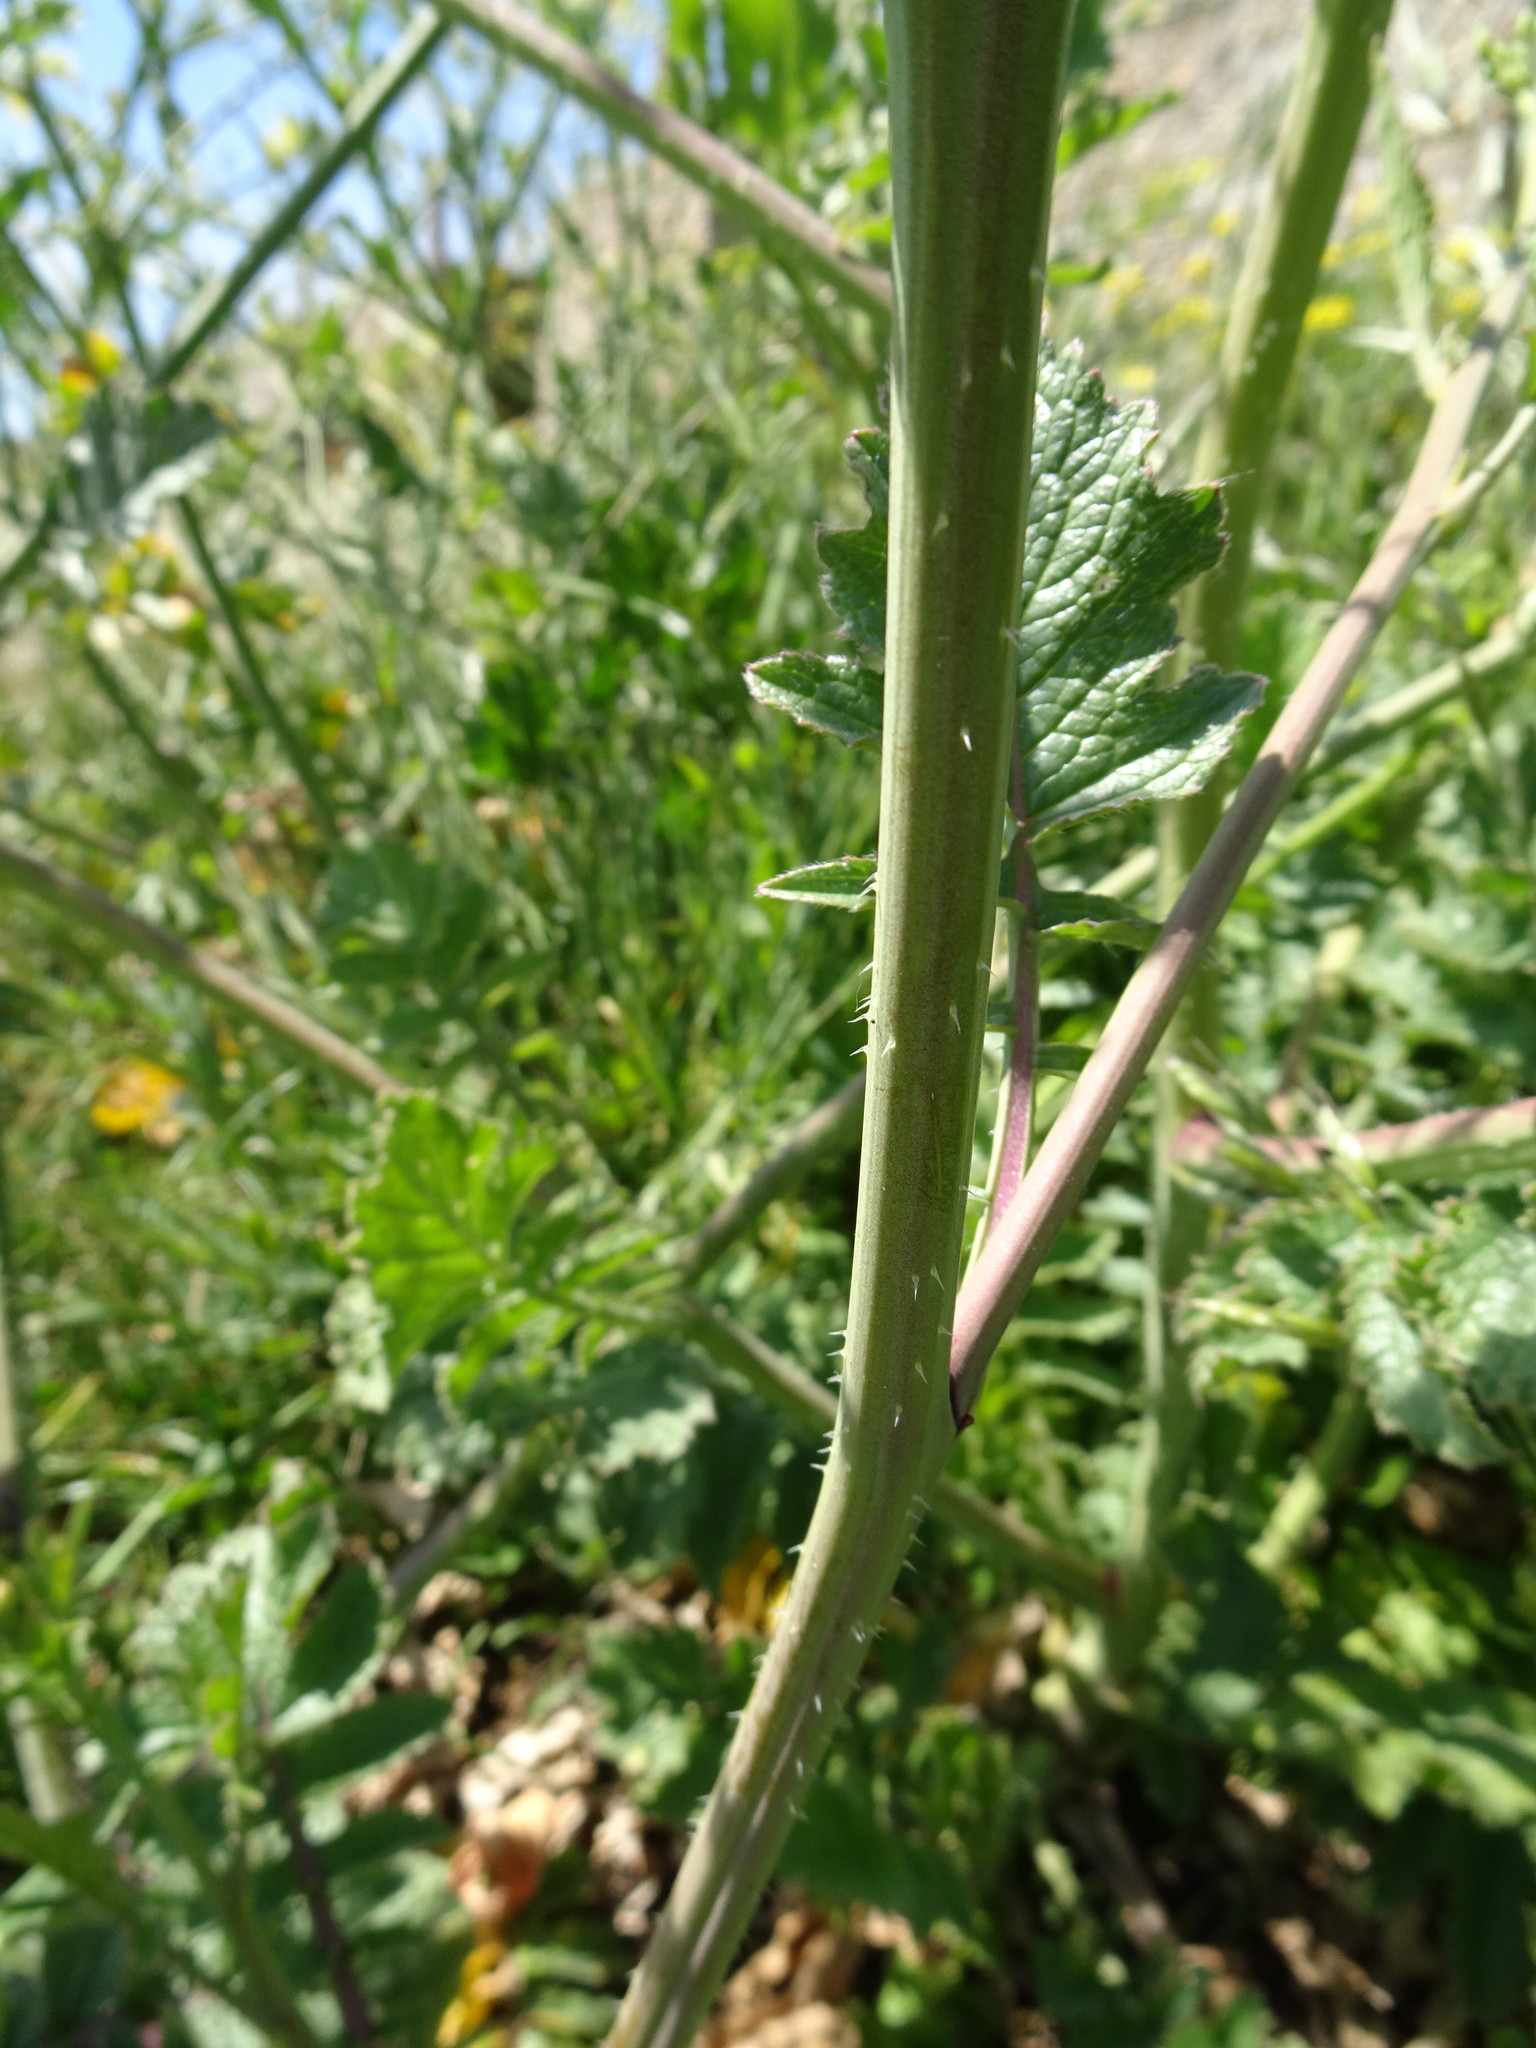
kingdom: Plantae
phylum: Tracheophyta
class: Magnoliopsida
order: Brassicales
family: Brassicaceae
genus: Raphanus
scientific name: Raphanus raphanistrum
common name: Wild radish
